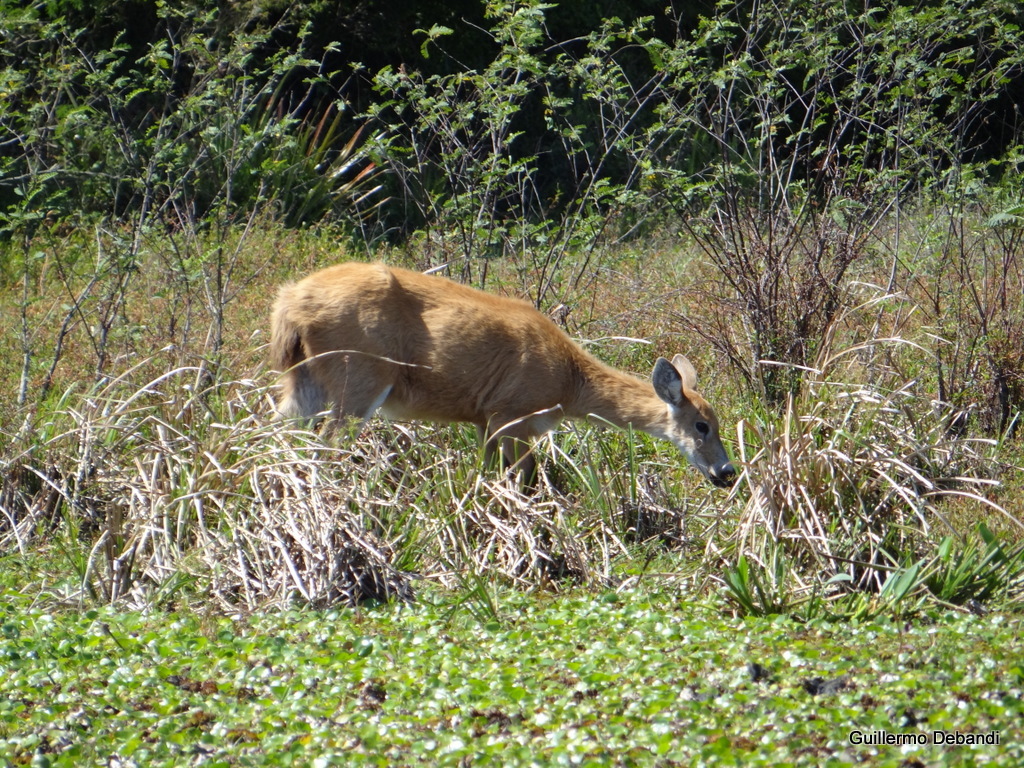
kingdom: Animalia
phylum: Chordata
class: Mammalia
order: Artiodactyla
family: Cervidae
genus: Blastocerus
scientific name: Blastocerus dichotomus
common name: Marsh deer
